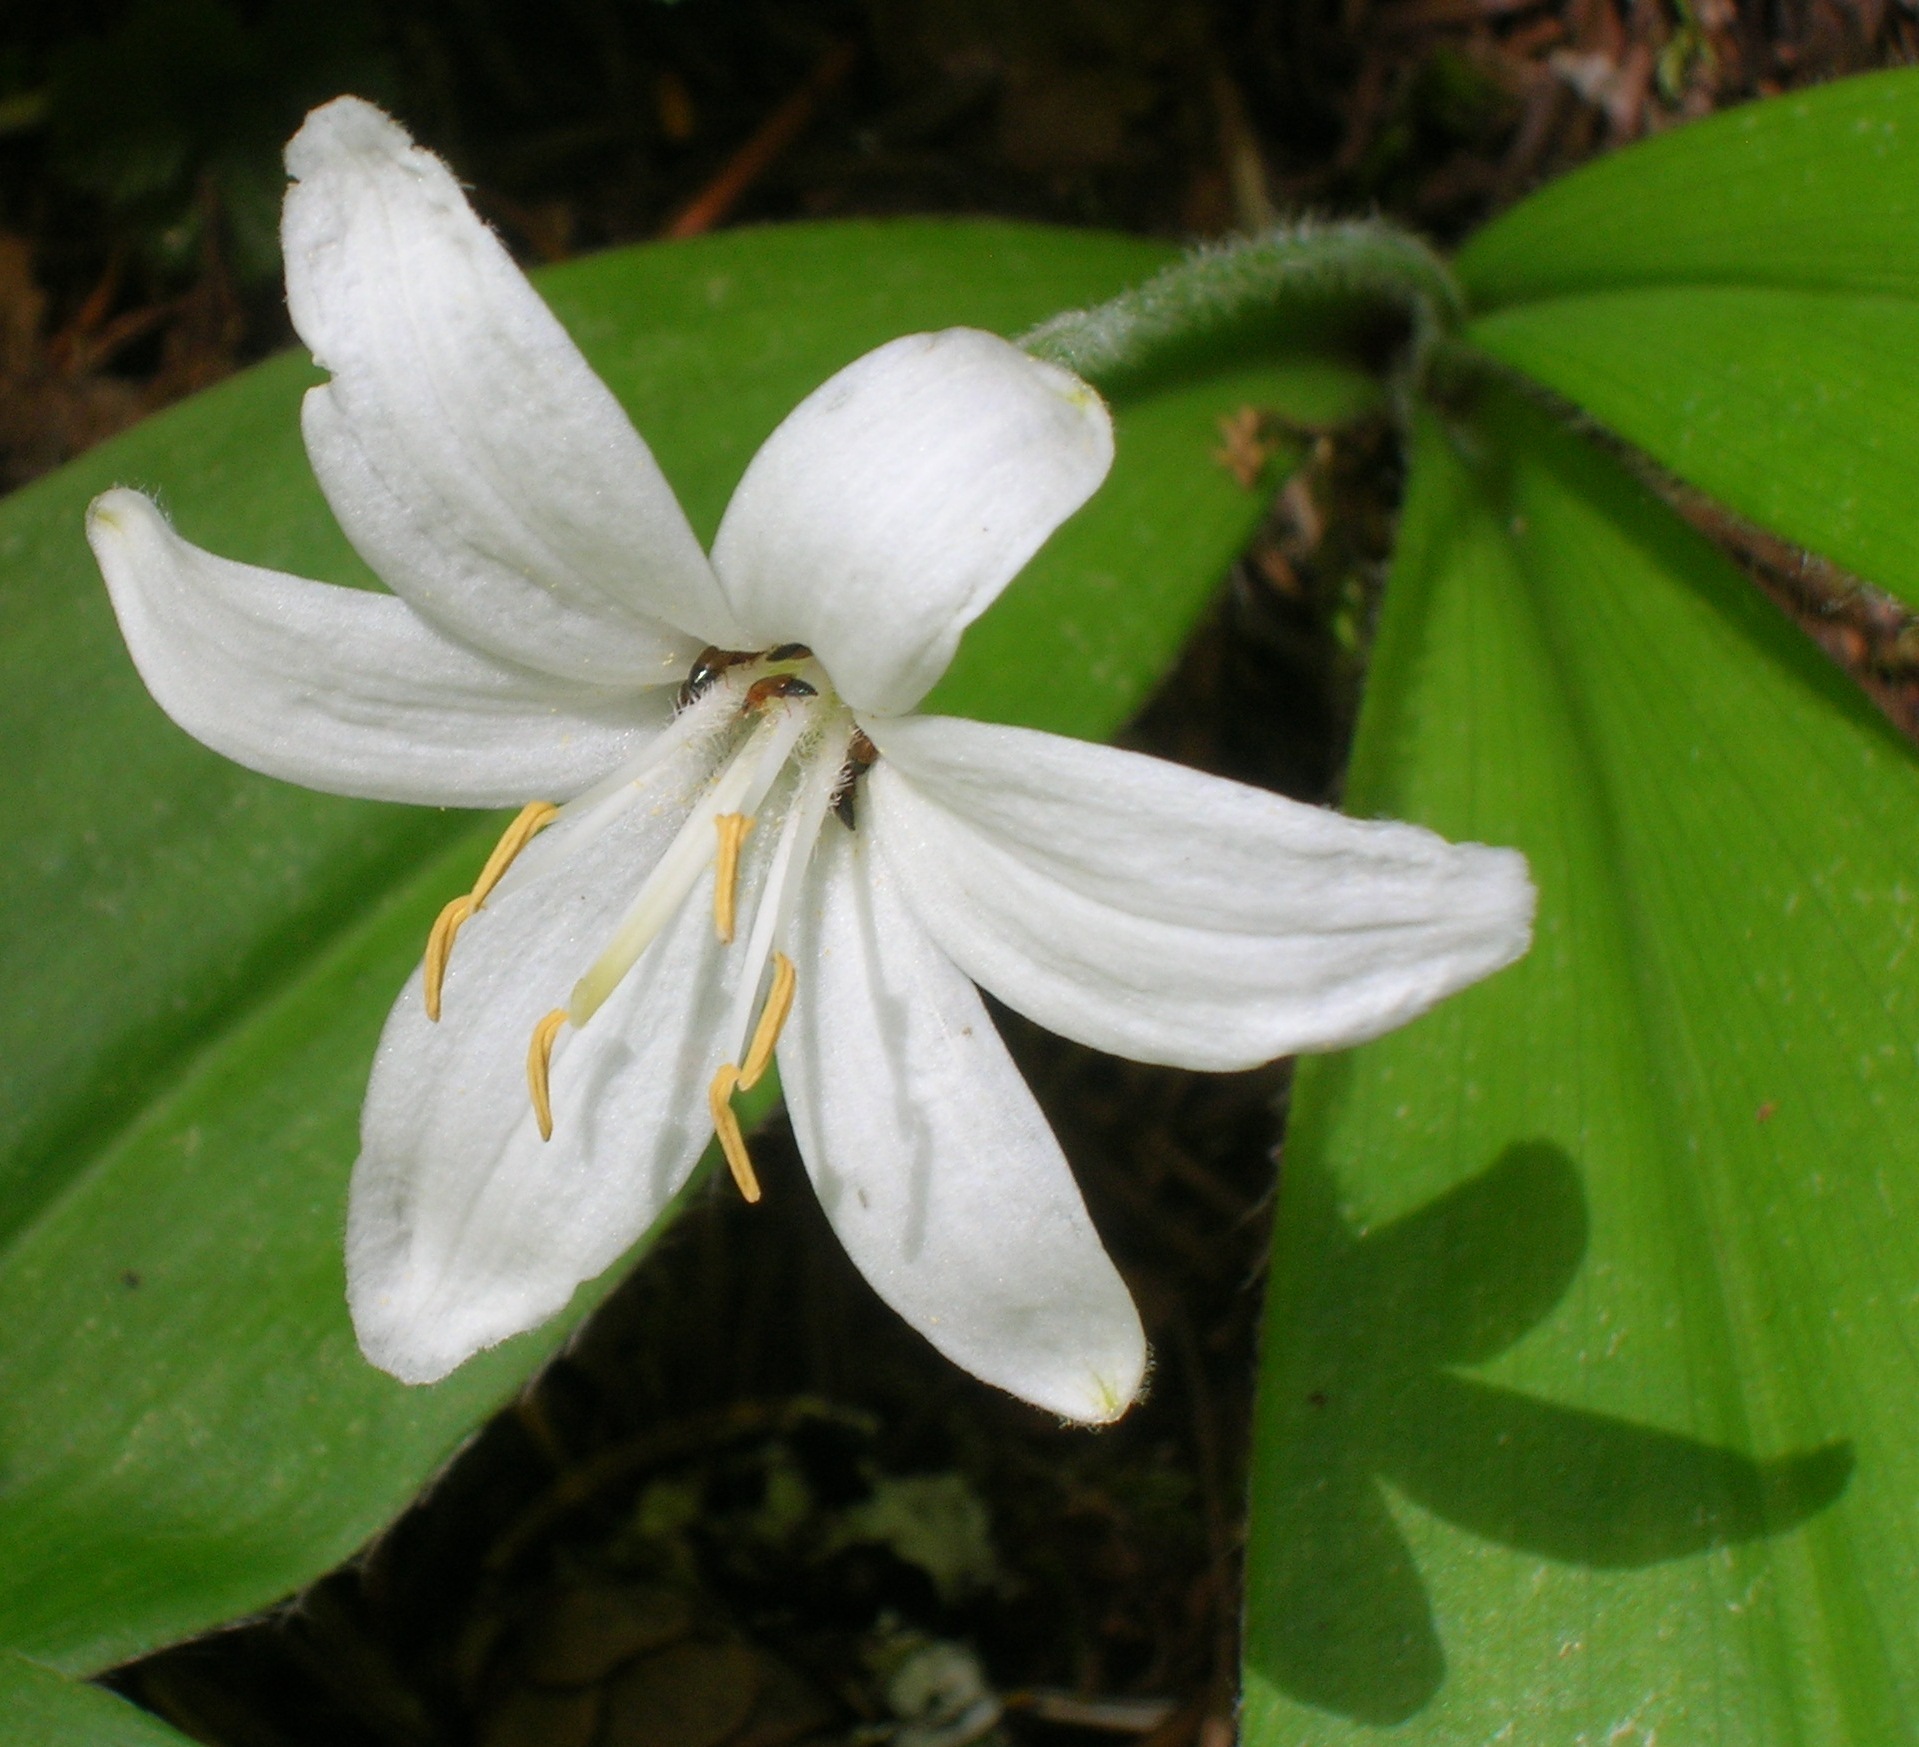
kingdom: Plantae
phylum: Tracheophyta
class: Liliopsida
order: Liliales
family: Liliaceae
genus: Clintonia
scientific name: Clintonia uniflora
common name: Queen's cup
